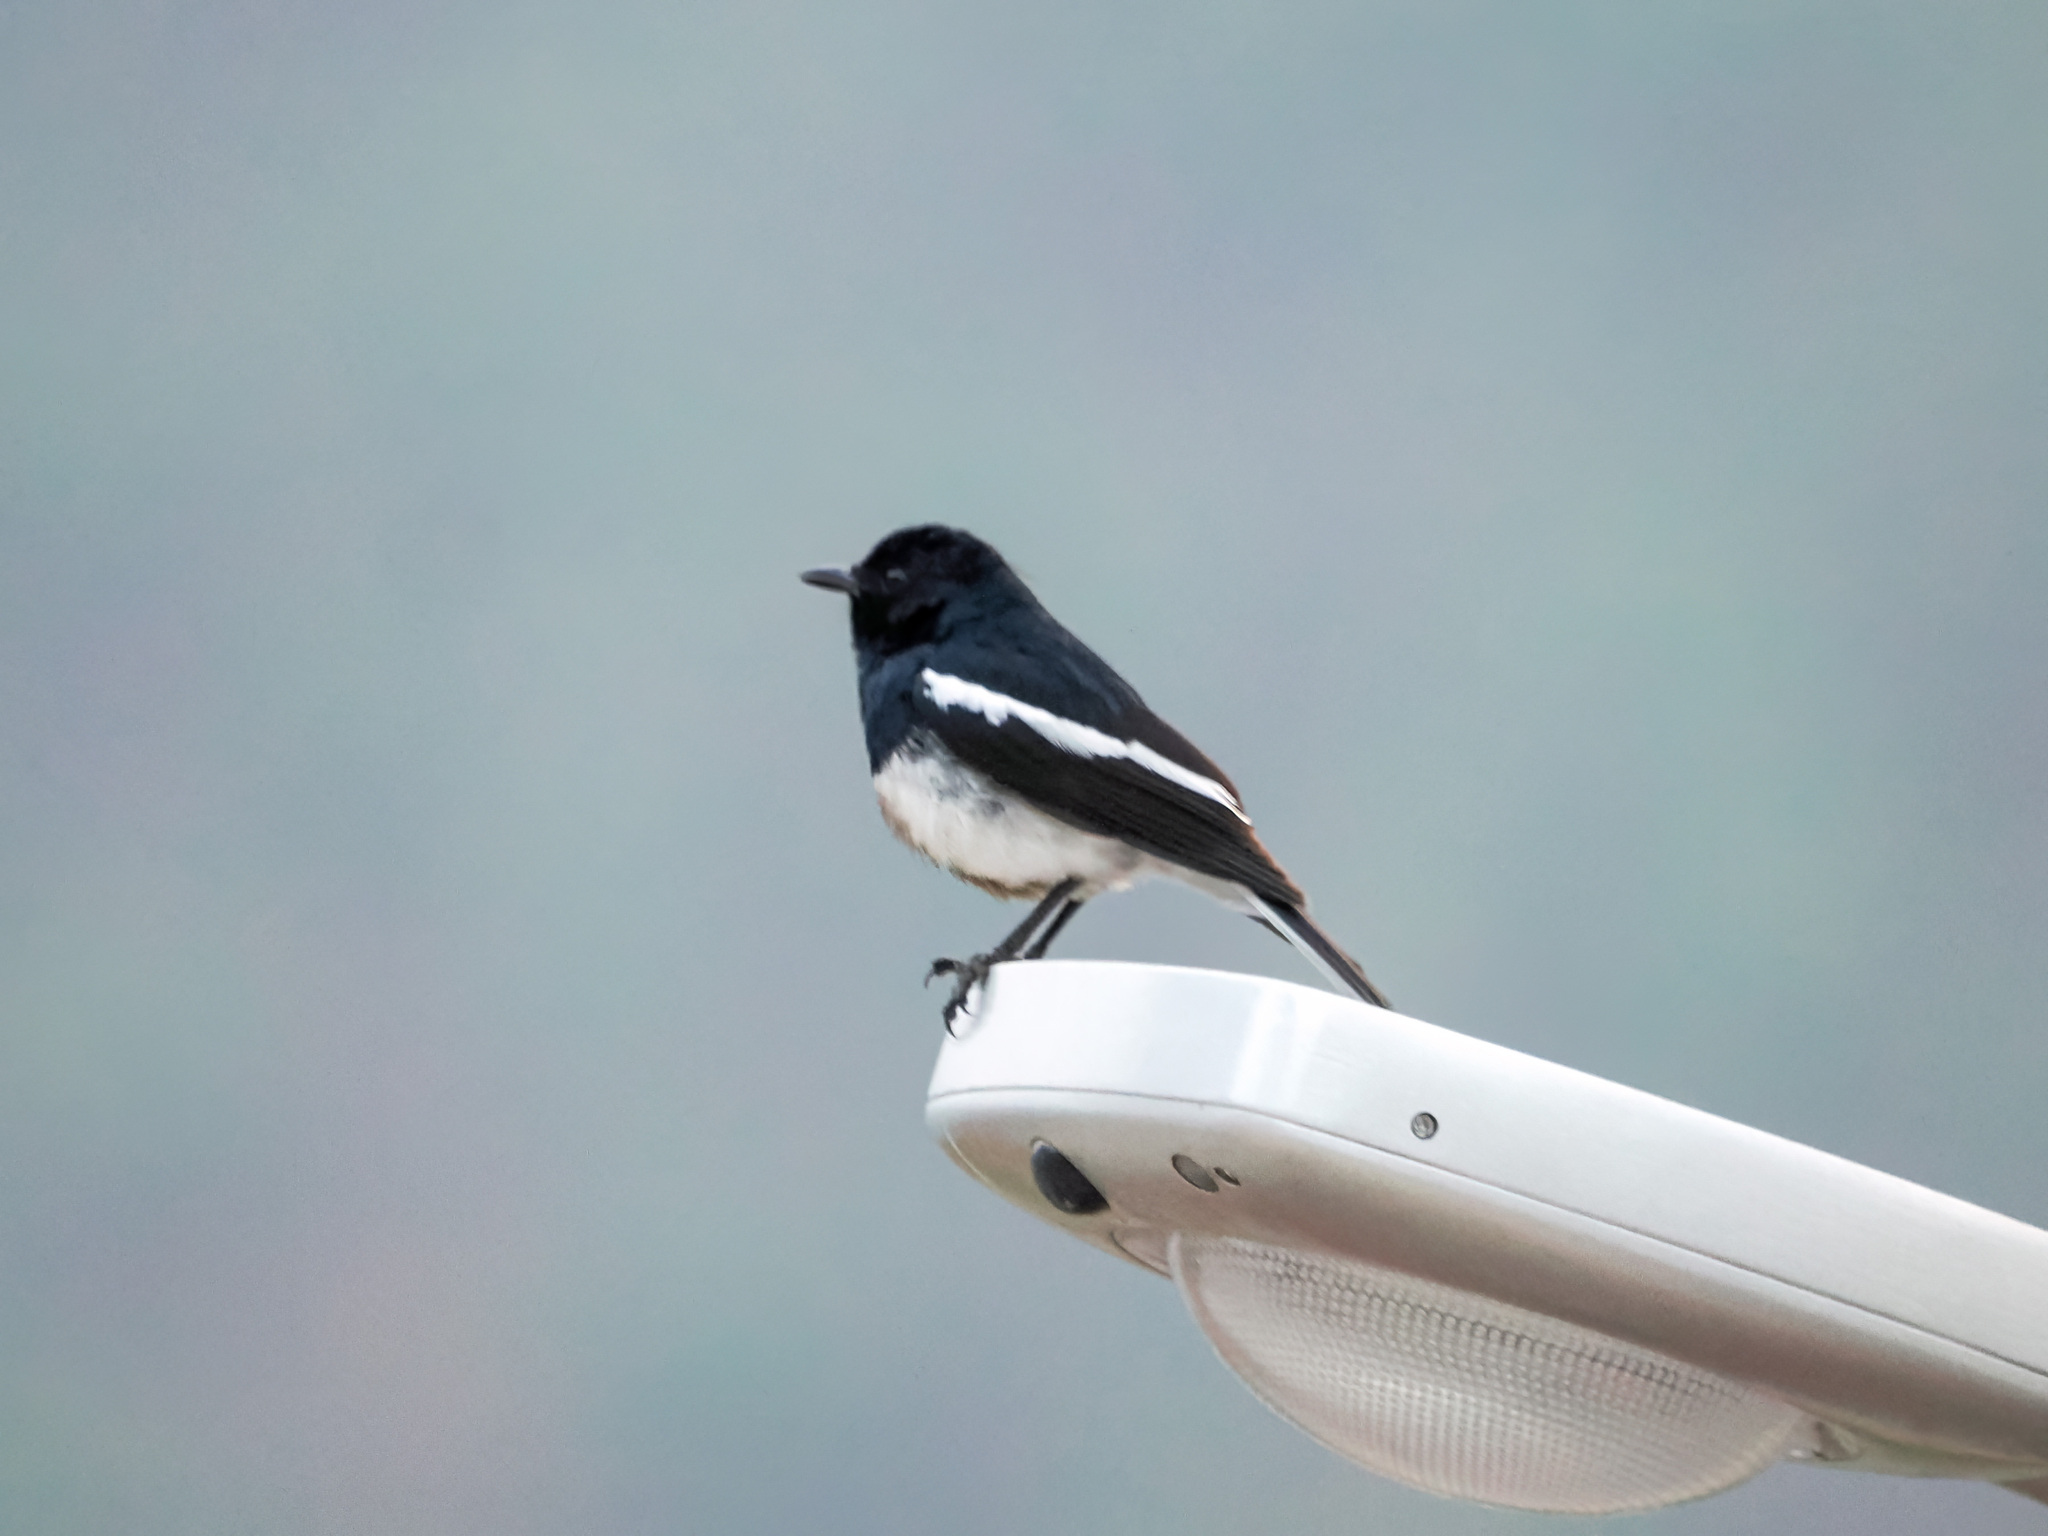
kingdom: Animalia
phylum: Chordata
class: Aves
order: Passeriformes
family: Muscicapidae
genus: Copsychus
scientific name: Copsychus saularis
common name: Oriental magpie-robin
